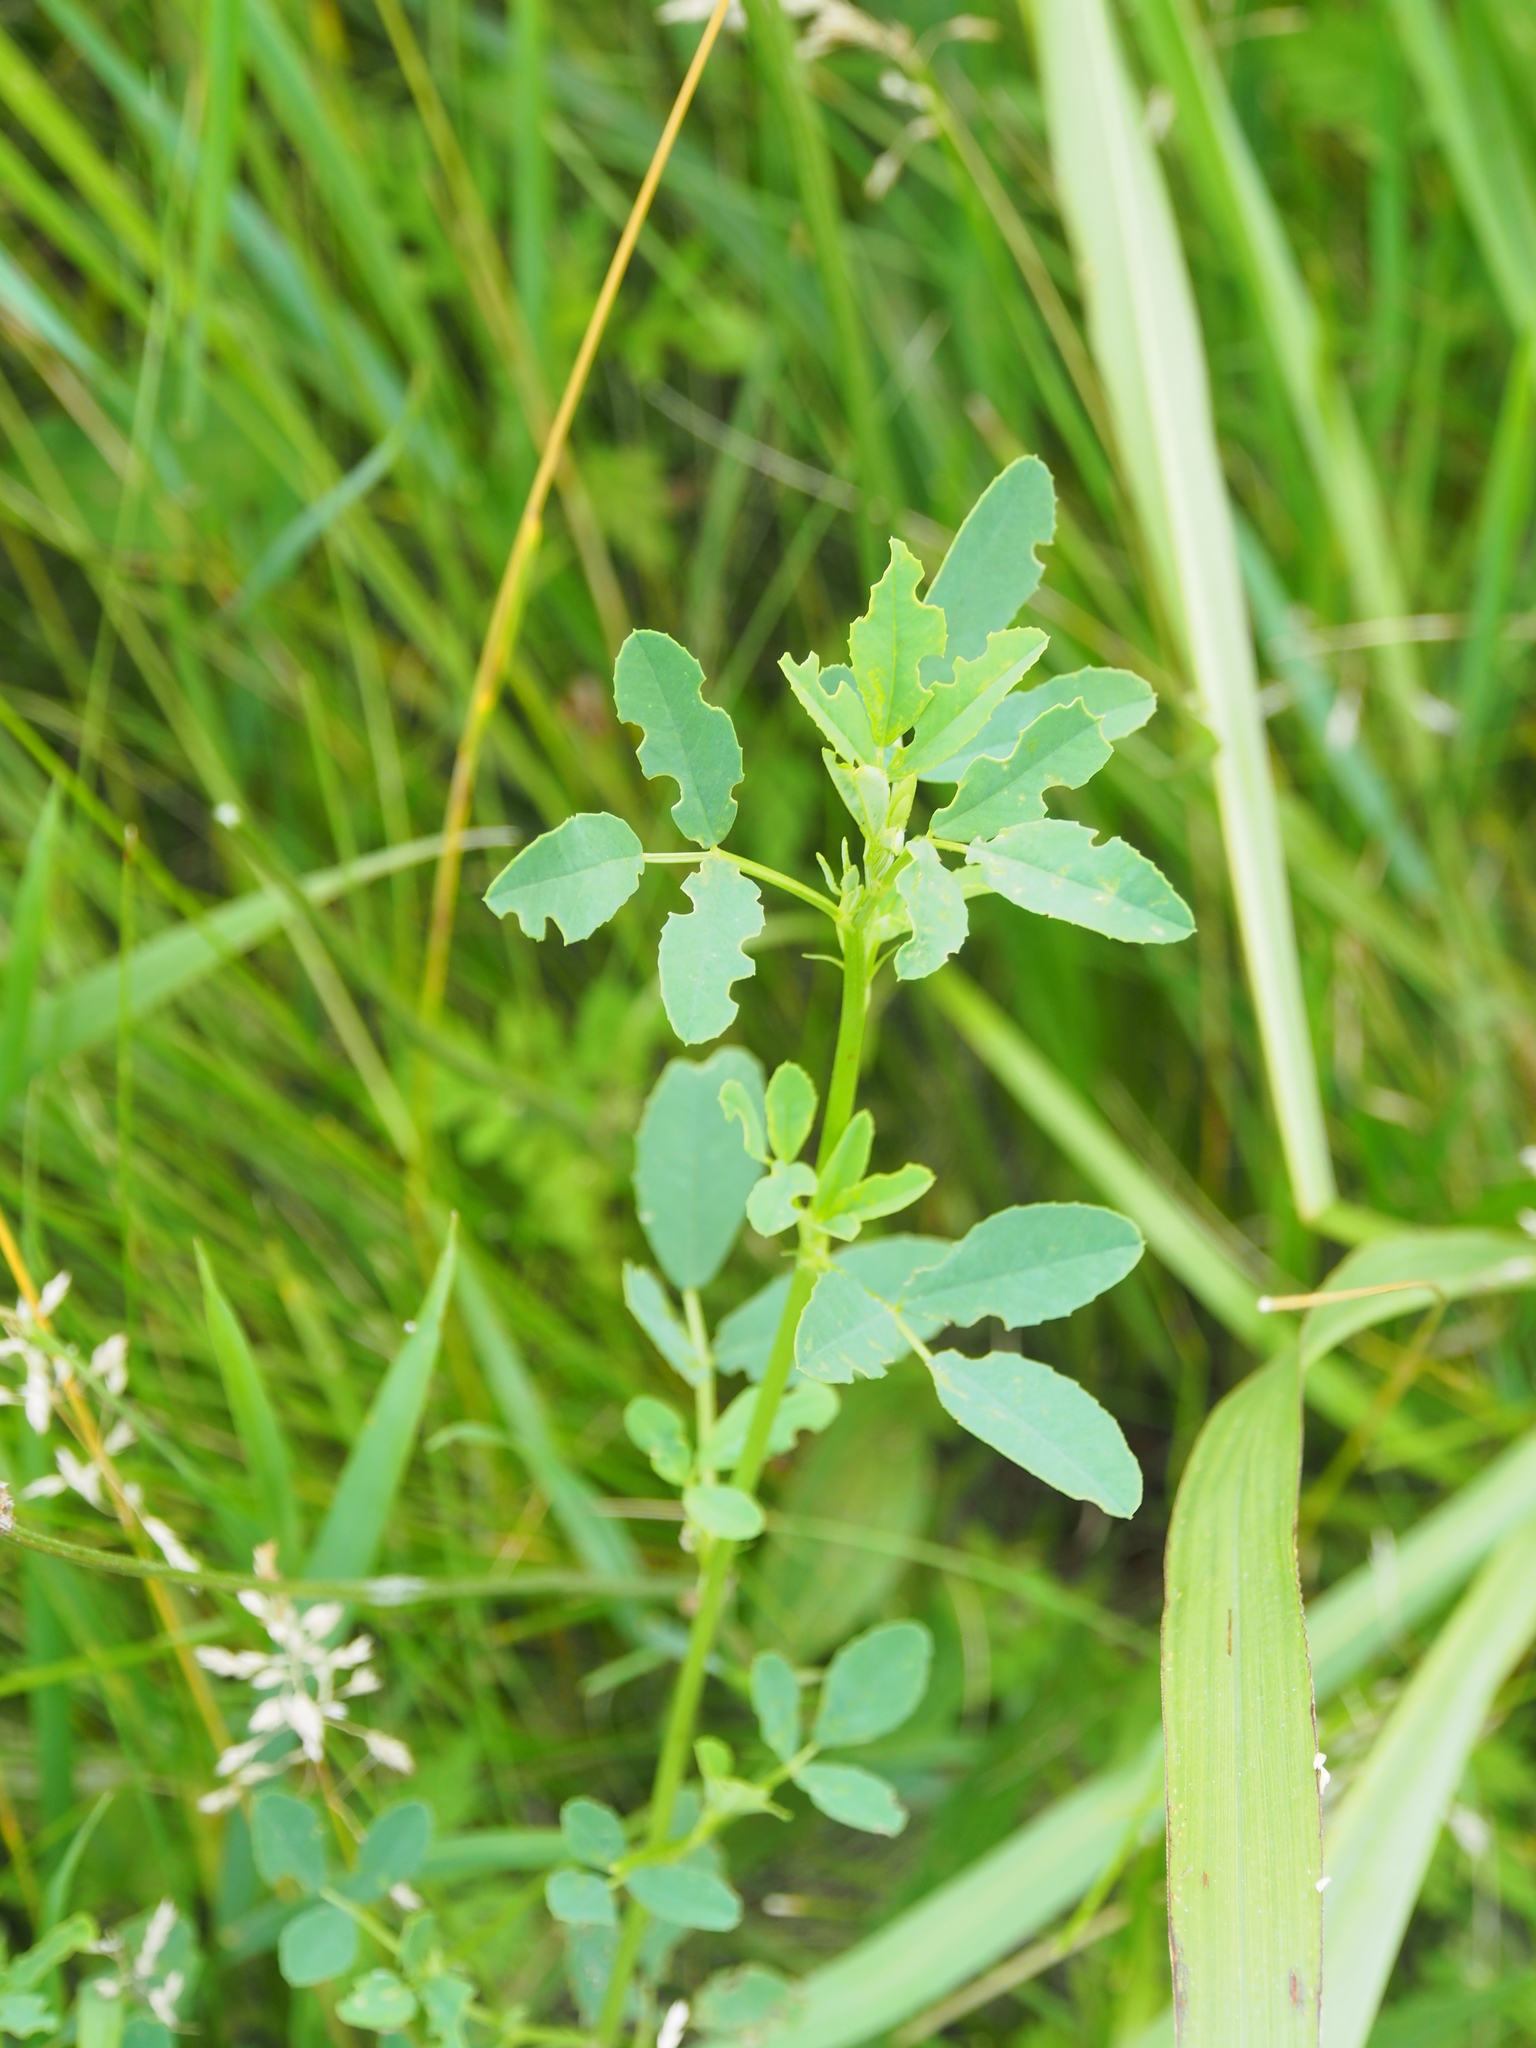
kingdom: Plantae
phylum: Tracheophyta
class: Magnoliopsida
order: Fabales
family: Fabaceae
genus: Melilotus
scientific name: Melilotus
